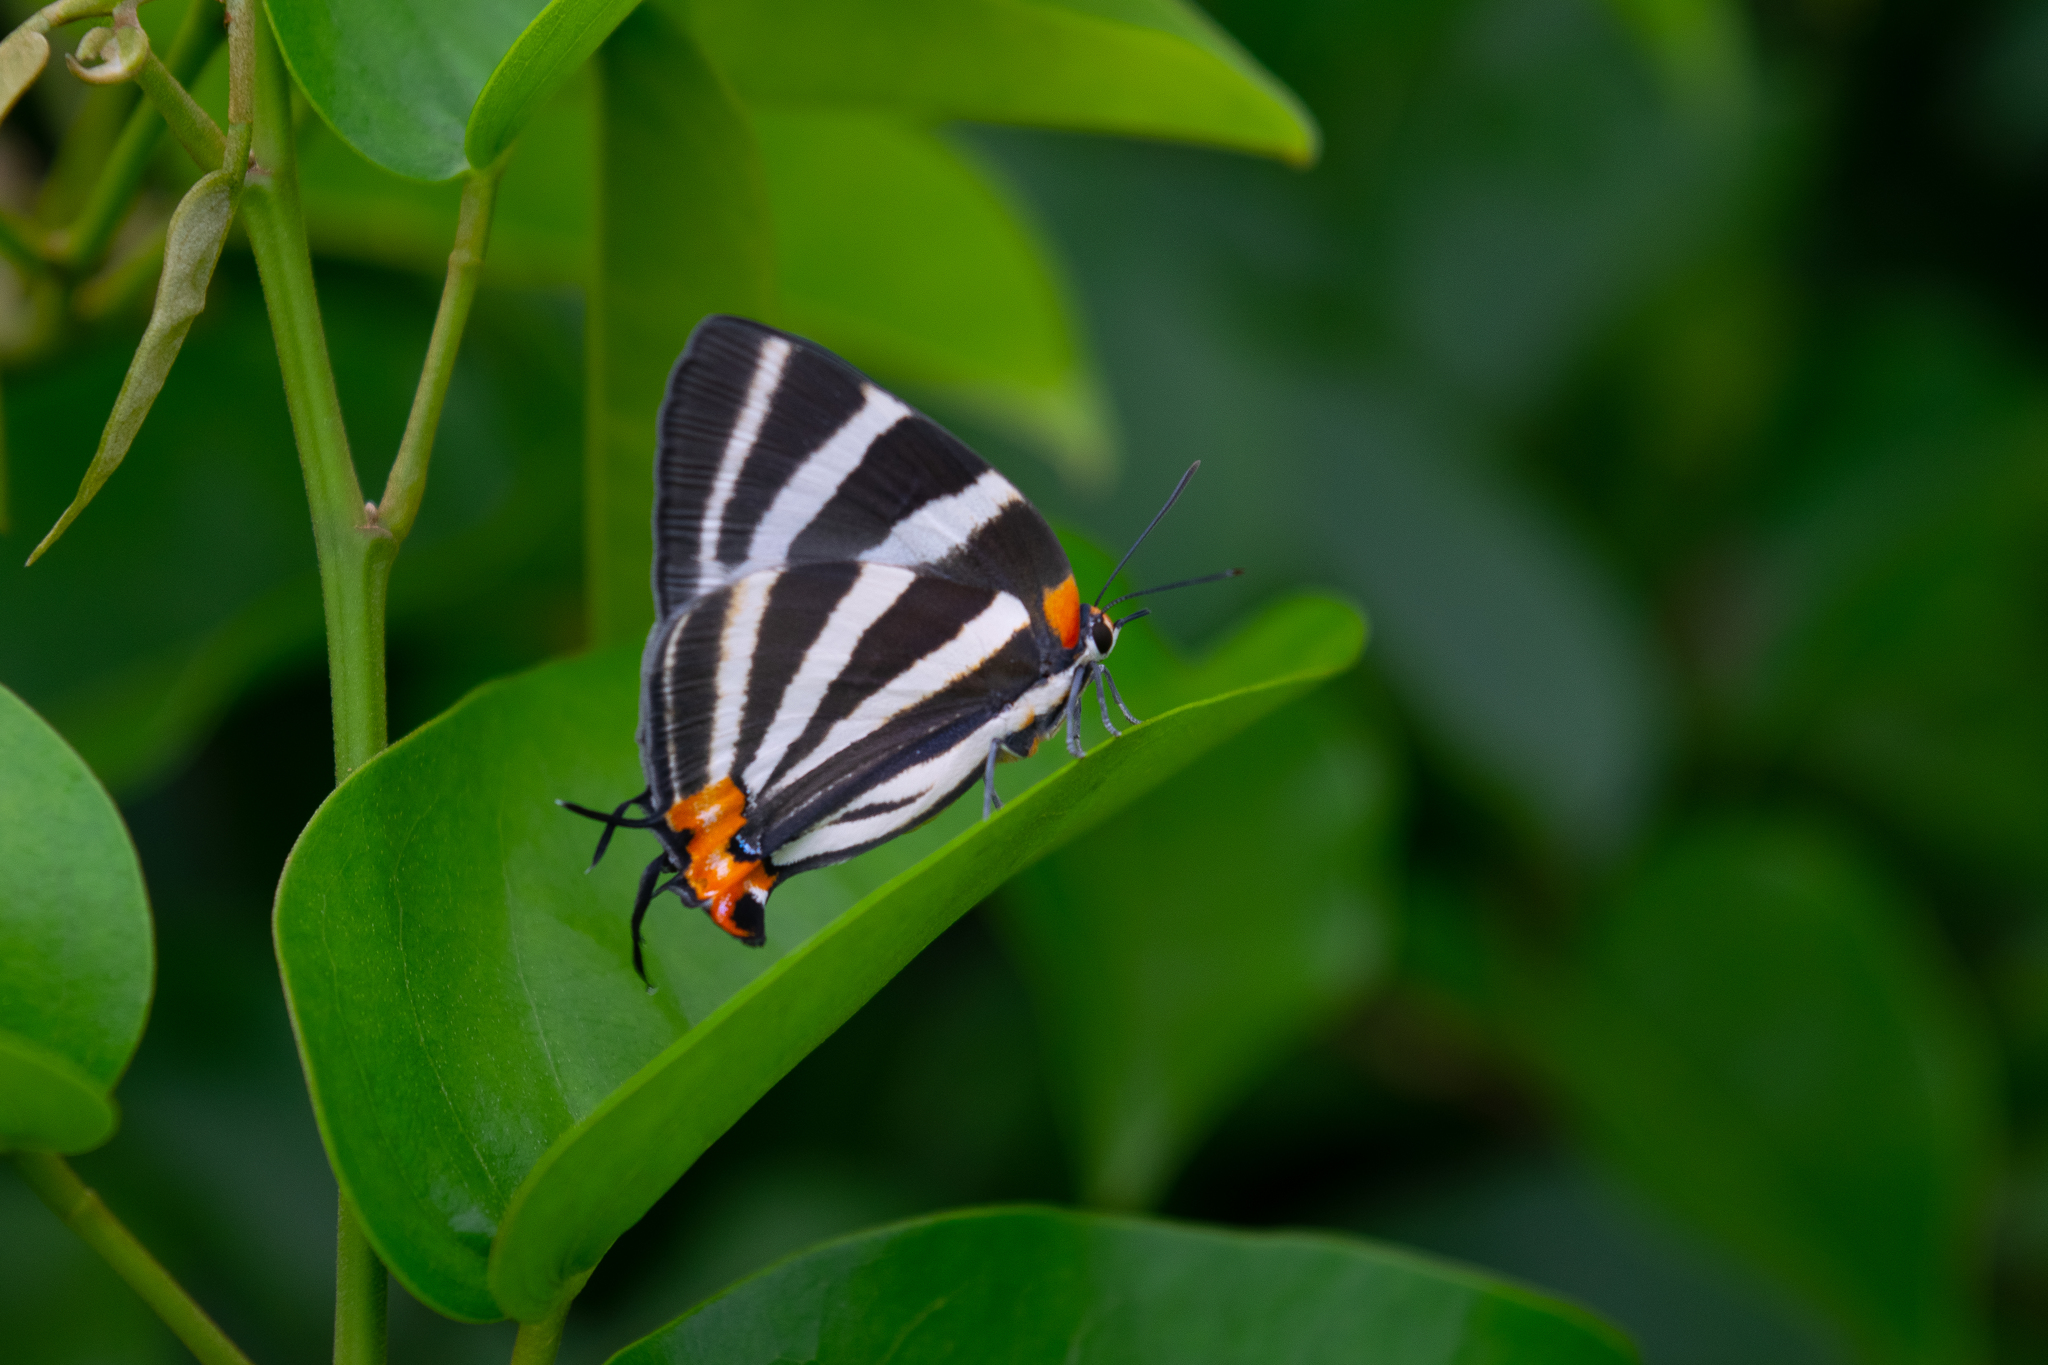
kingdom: Animalia
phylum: Arthropoda
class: Insecta
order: Lepidoptera
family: Lycaenidae
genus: Thecla
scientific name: Thecla bathildis
